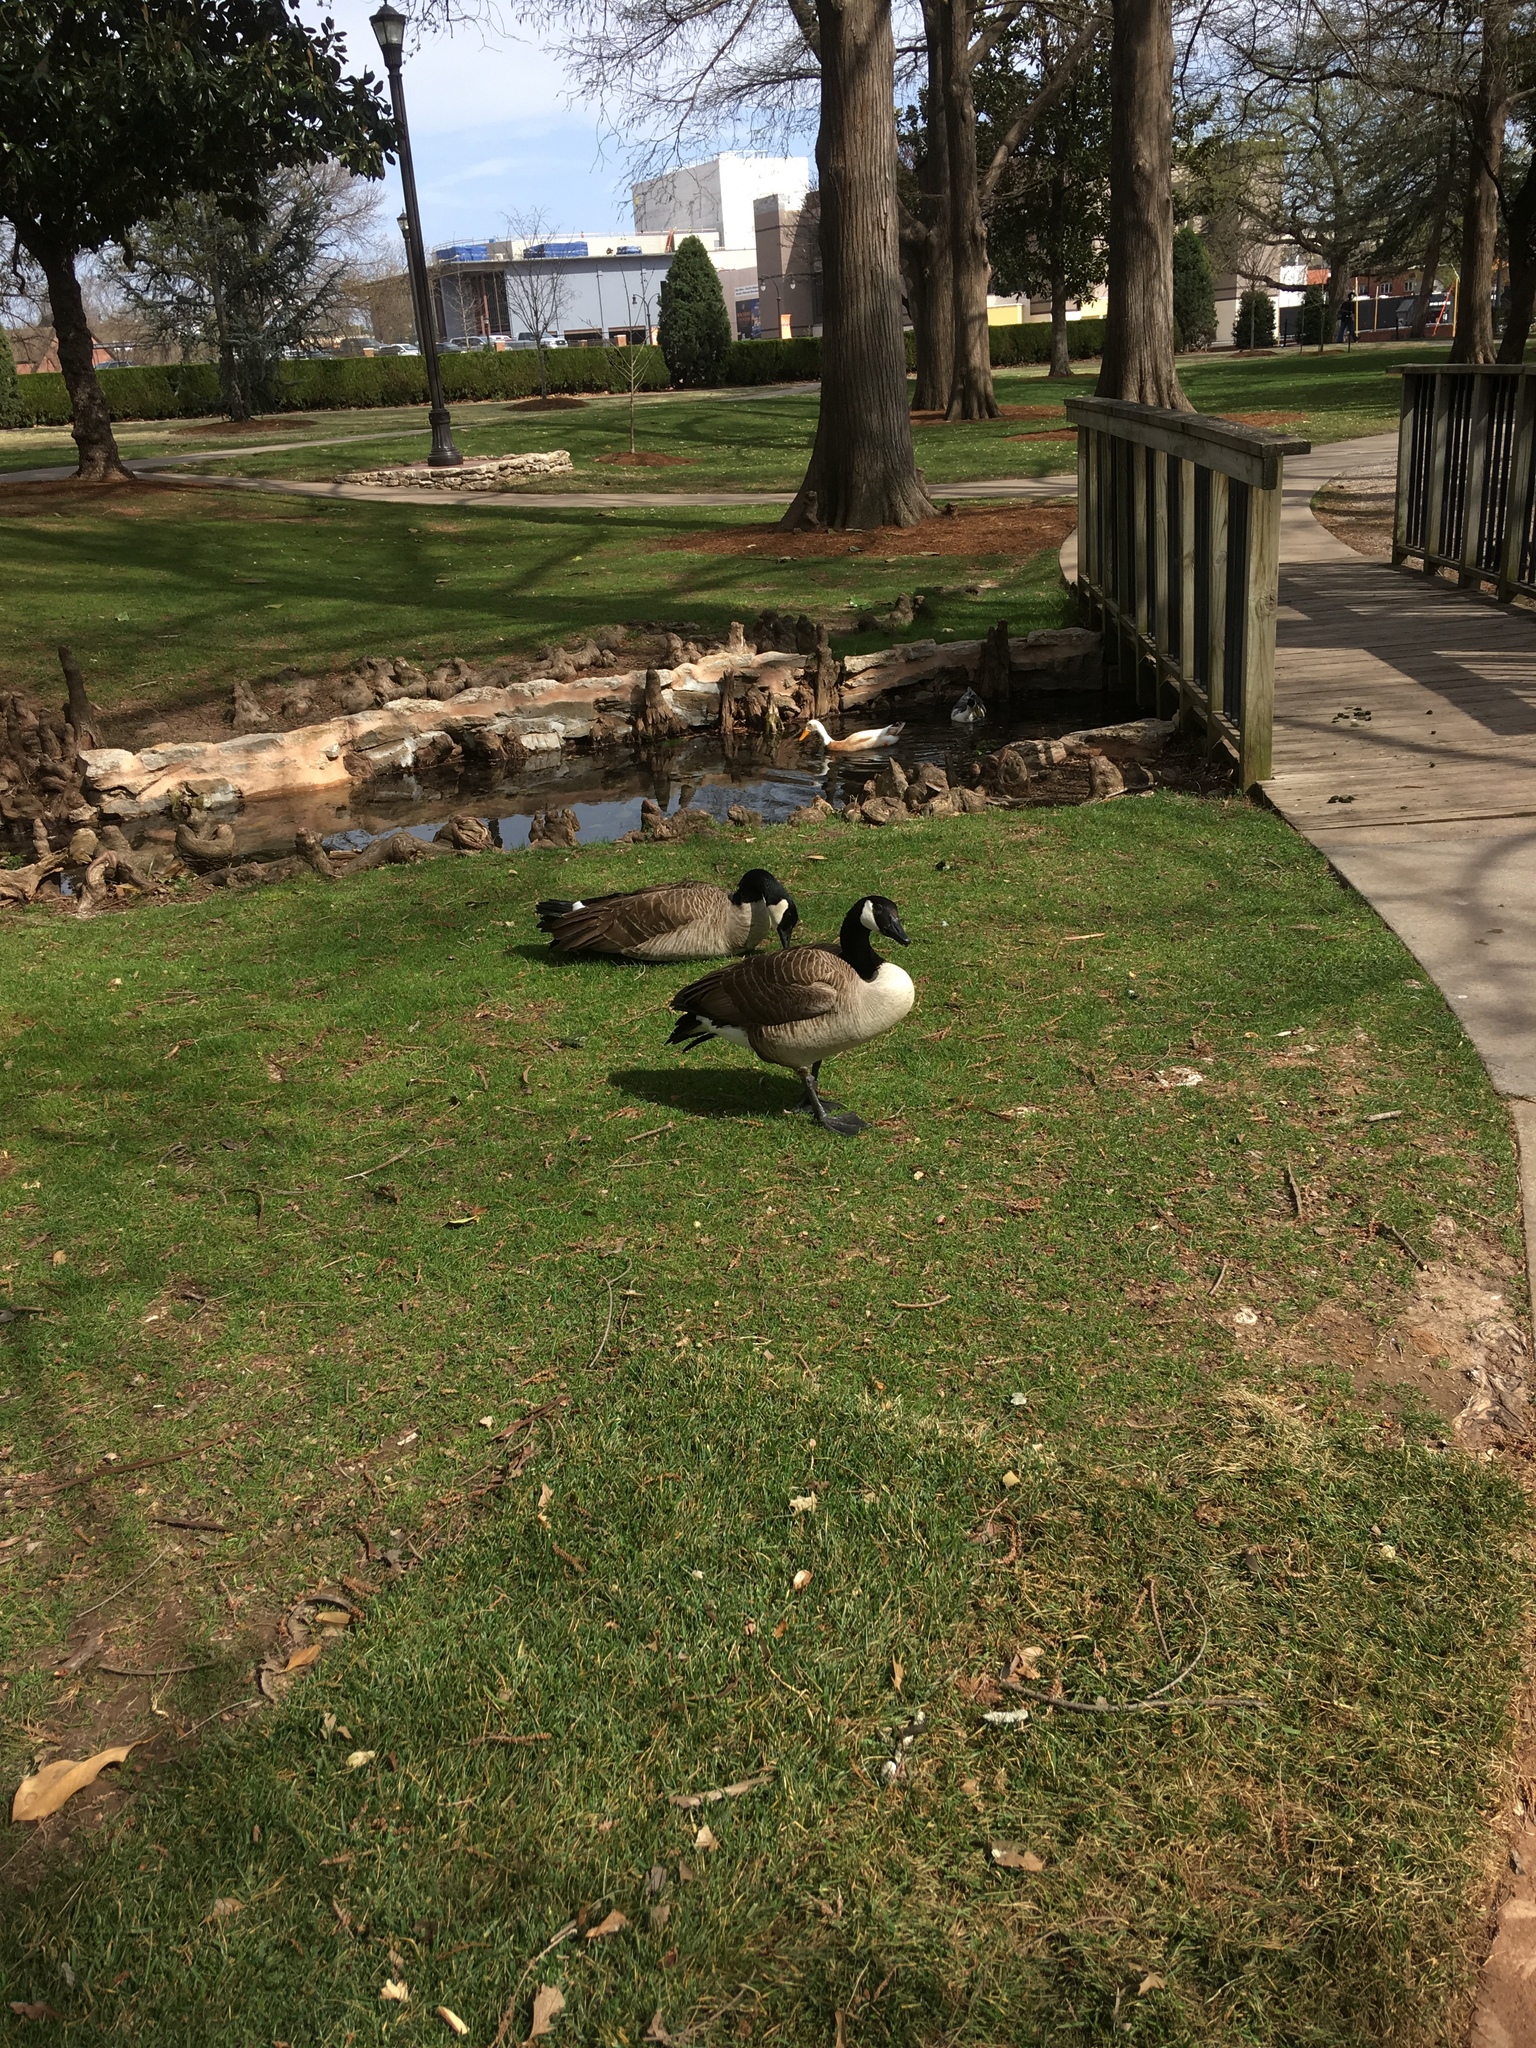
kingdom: Animalia
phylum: Chordata
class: Aves
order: Anseriformes
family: Anatidae
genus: Branta
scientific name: Branta canadensis
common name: Canada goose
